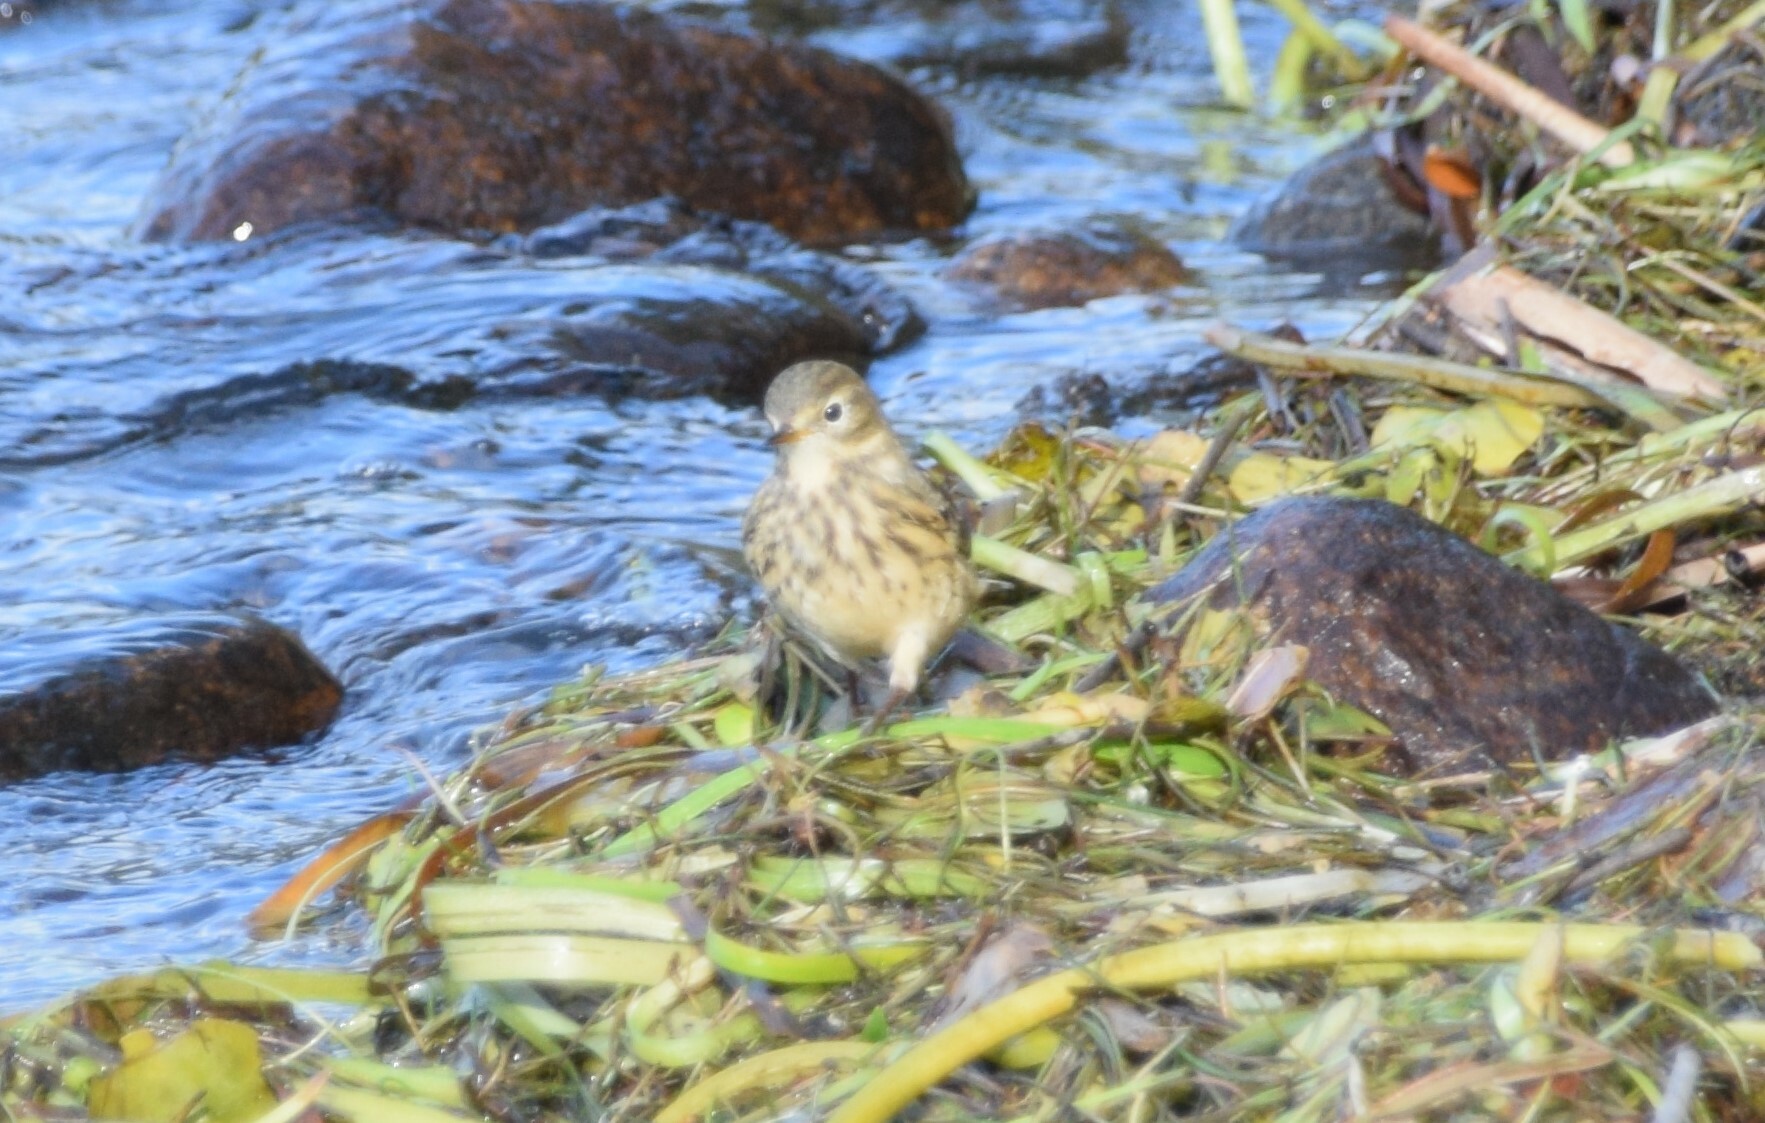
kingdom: Animalia
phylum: Chordata
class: Aves
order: Passeriformes
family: Motacillidae
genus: Anthus
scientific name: Anthus rubescens
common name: Buff-bellied pipit
